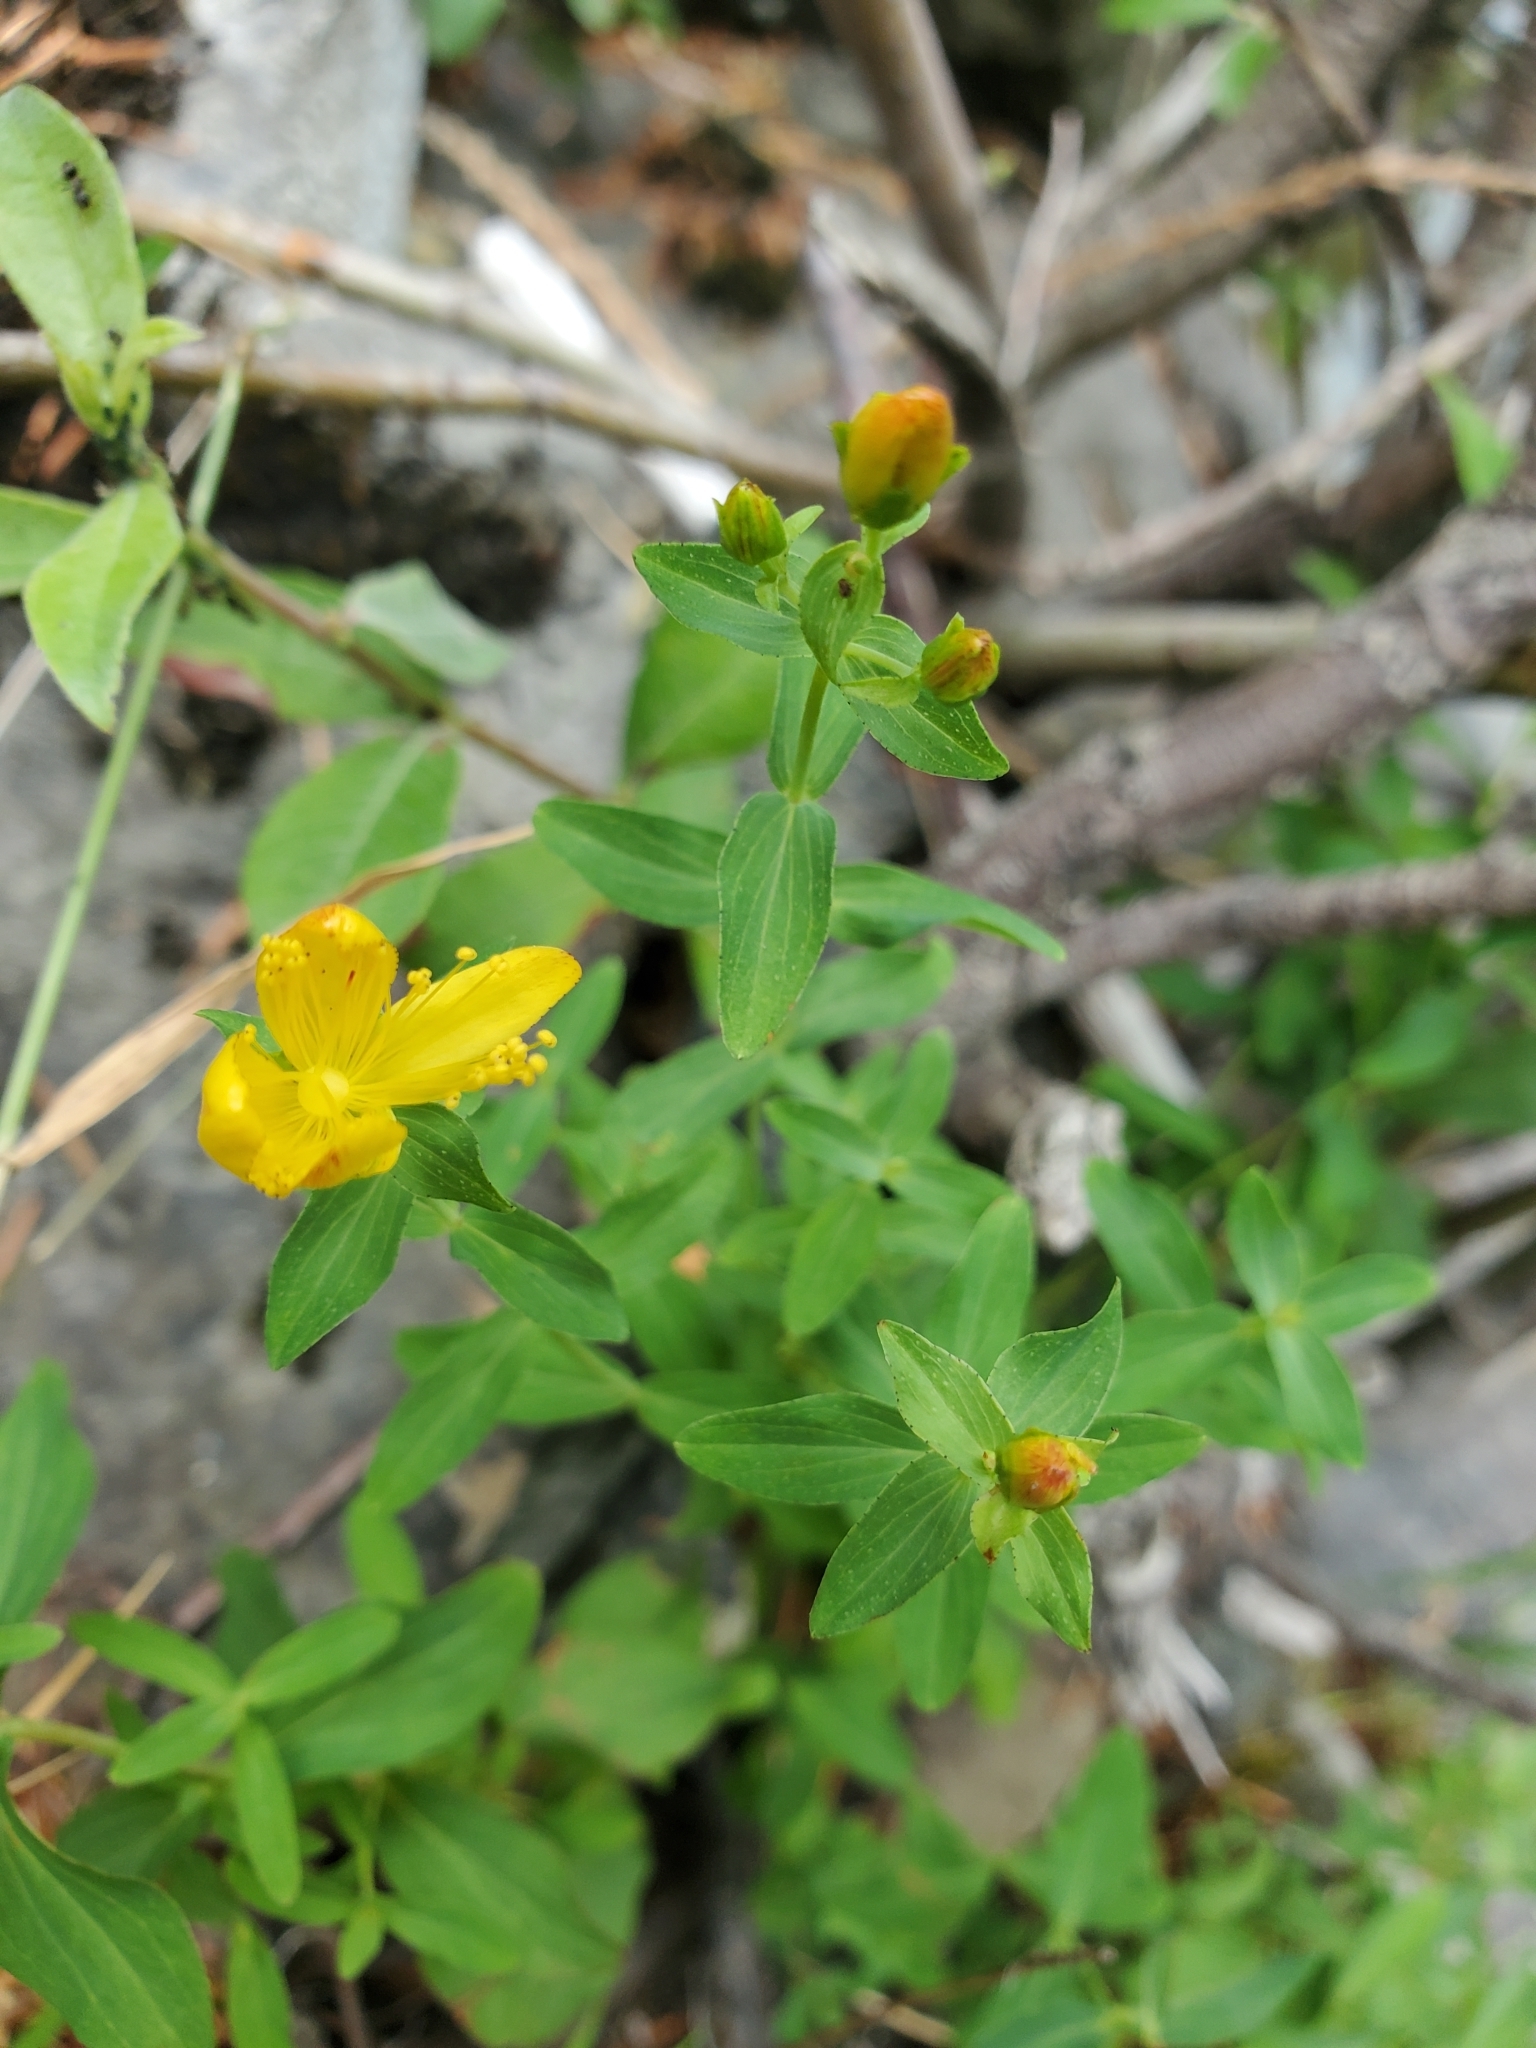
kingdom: Plantae
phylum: Tracheophyta
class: Magnoliopsida
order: Malpighiales
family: Hypericaceae
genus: Hypericum
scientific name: Hypericum scouleri
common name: Scouler's st. john's-wort
